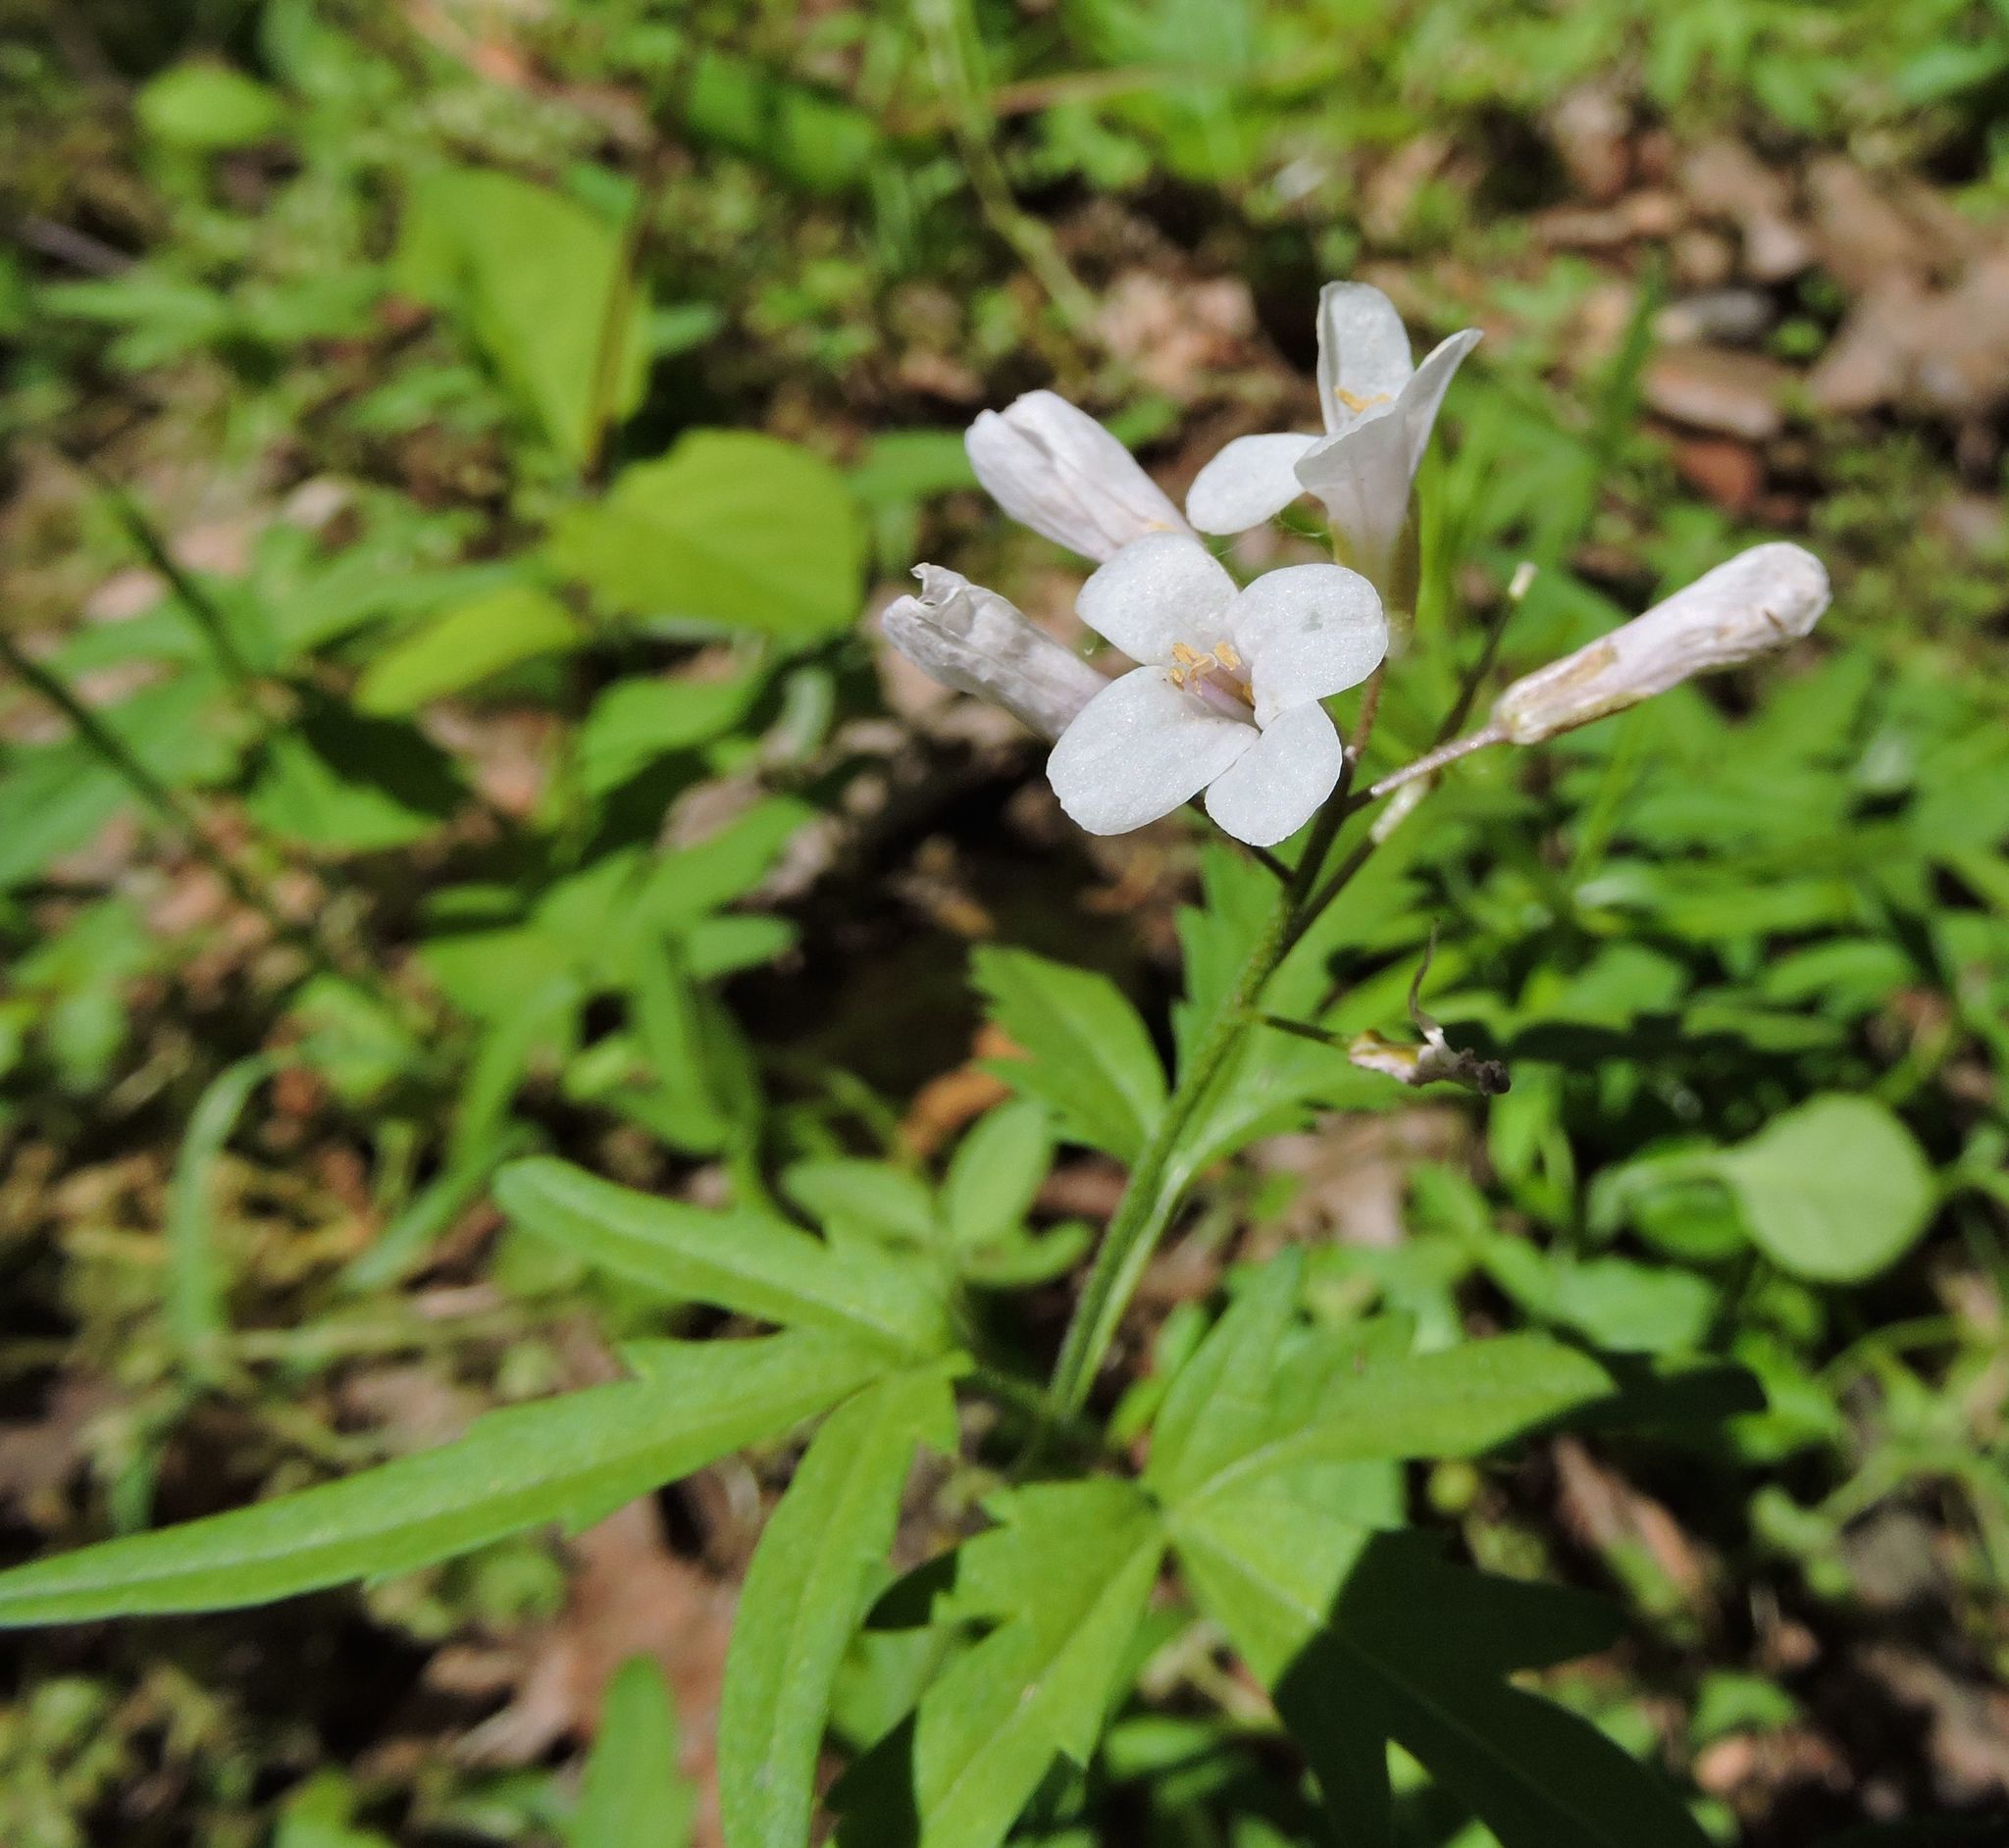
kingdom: Plantae
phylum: Tracheophyta
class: Magnoliopsida
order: Brassicales
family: Brassicaceae
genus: Cardamine
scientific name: Cardamine concatenata
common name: Cut-leaf toothcup
